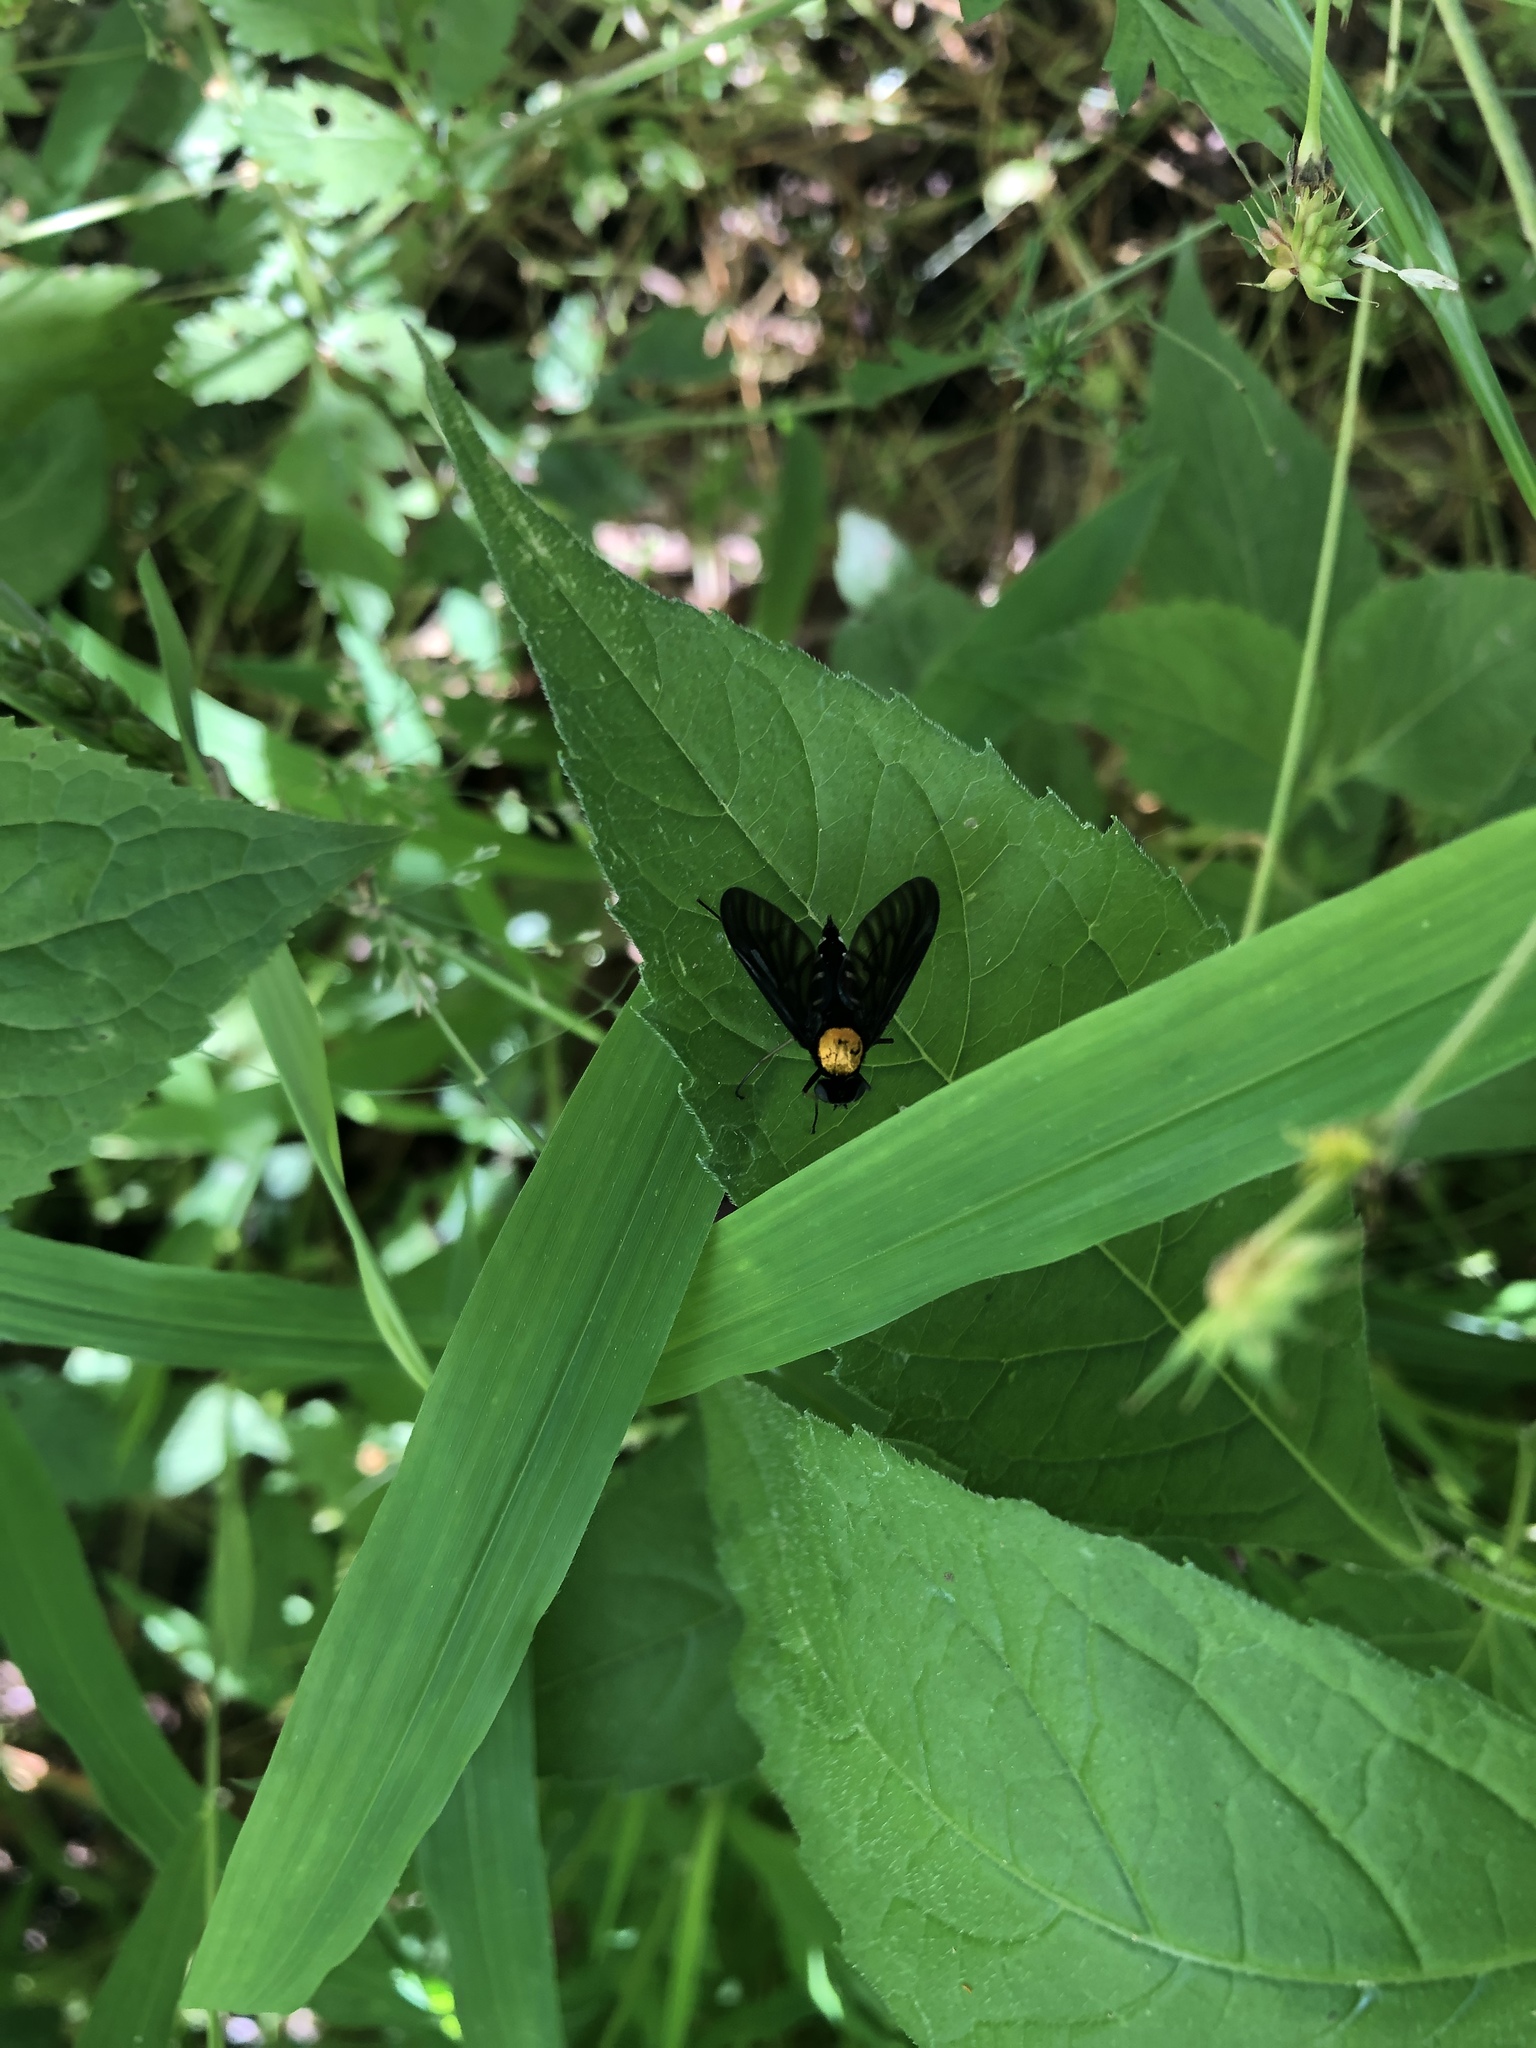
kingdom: Animalia
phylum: Arthropoda
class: Insecta
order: Diptera
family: Rhagionidae
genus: Chrysopilus
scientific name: Chrysopilus thoracicus
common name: Golden-backed snipe fly
